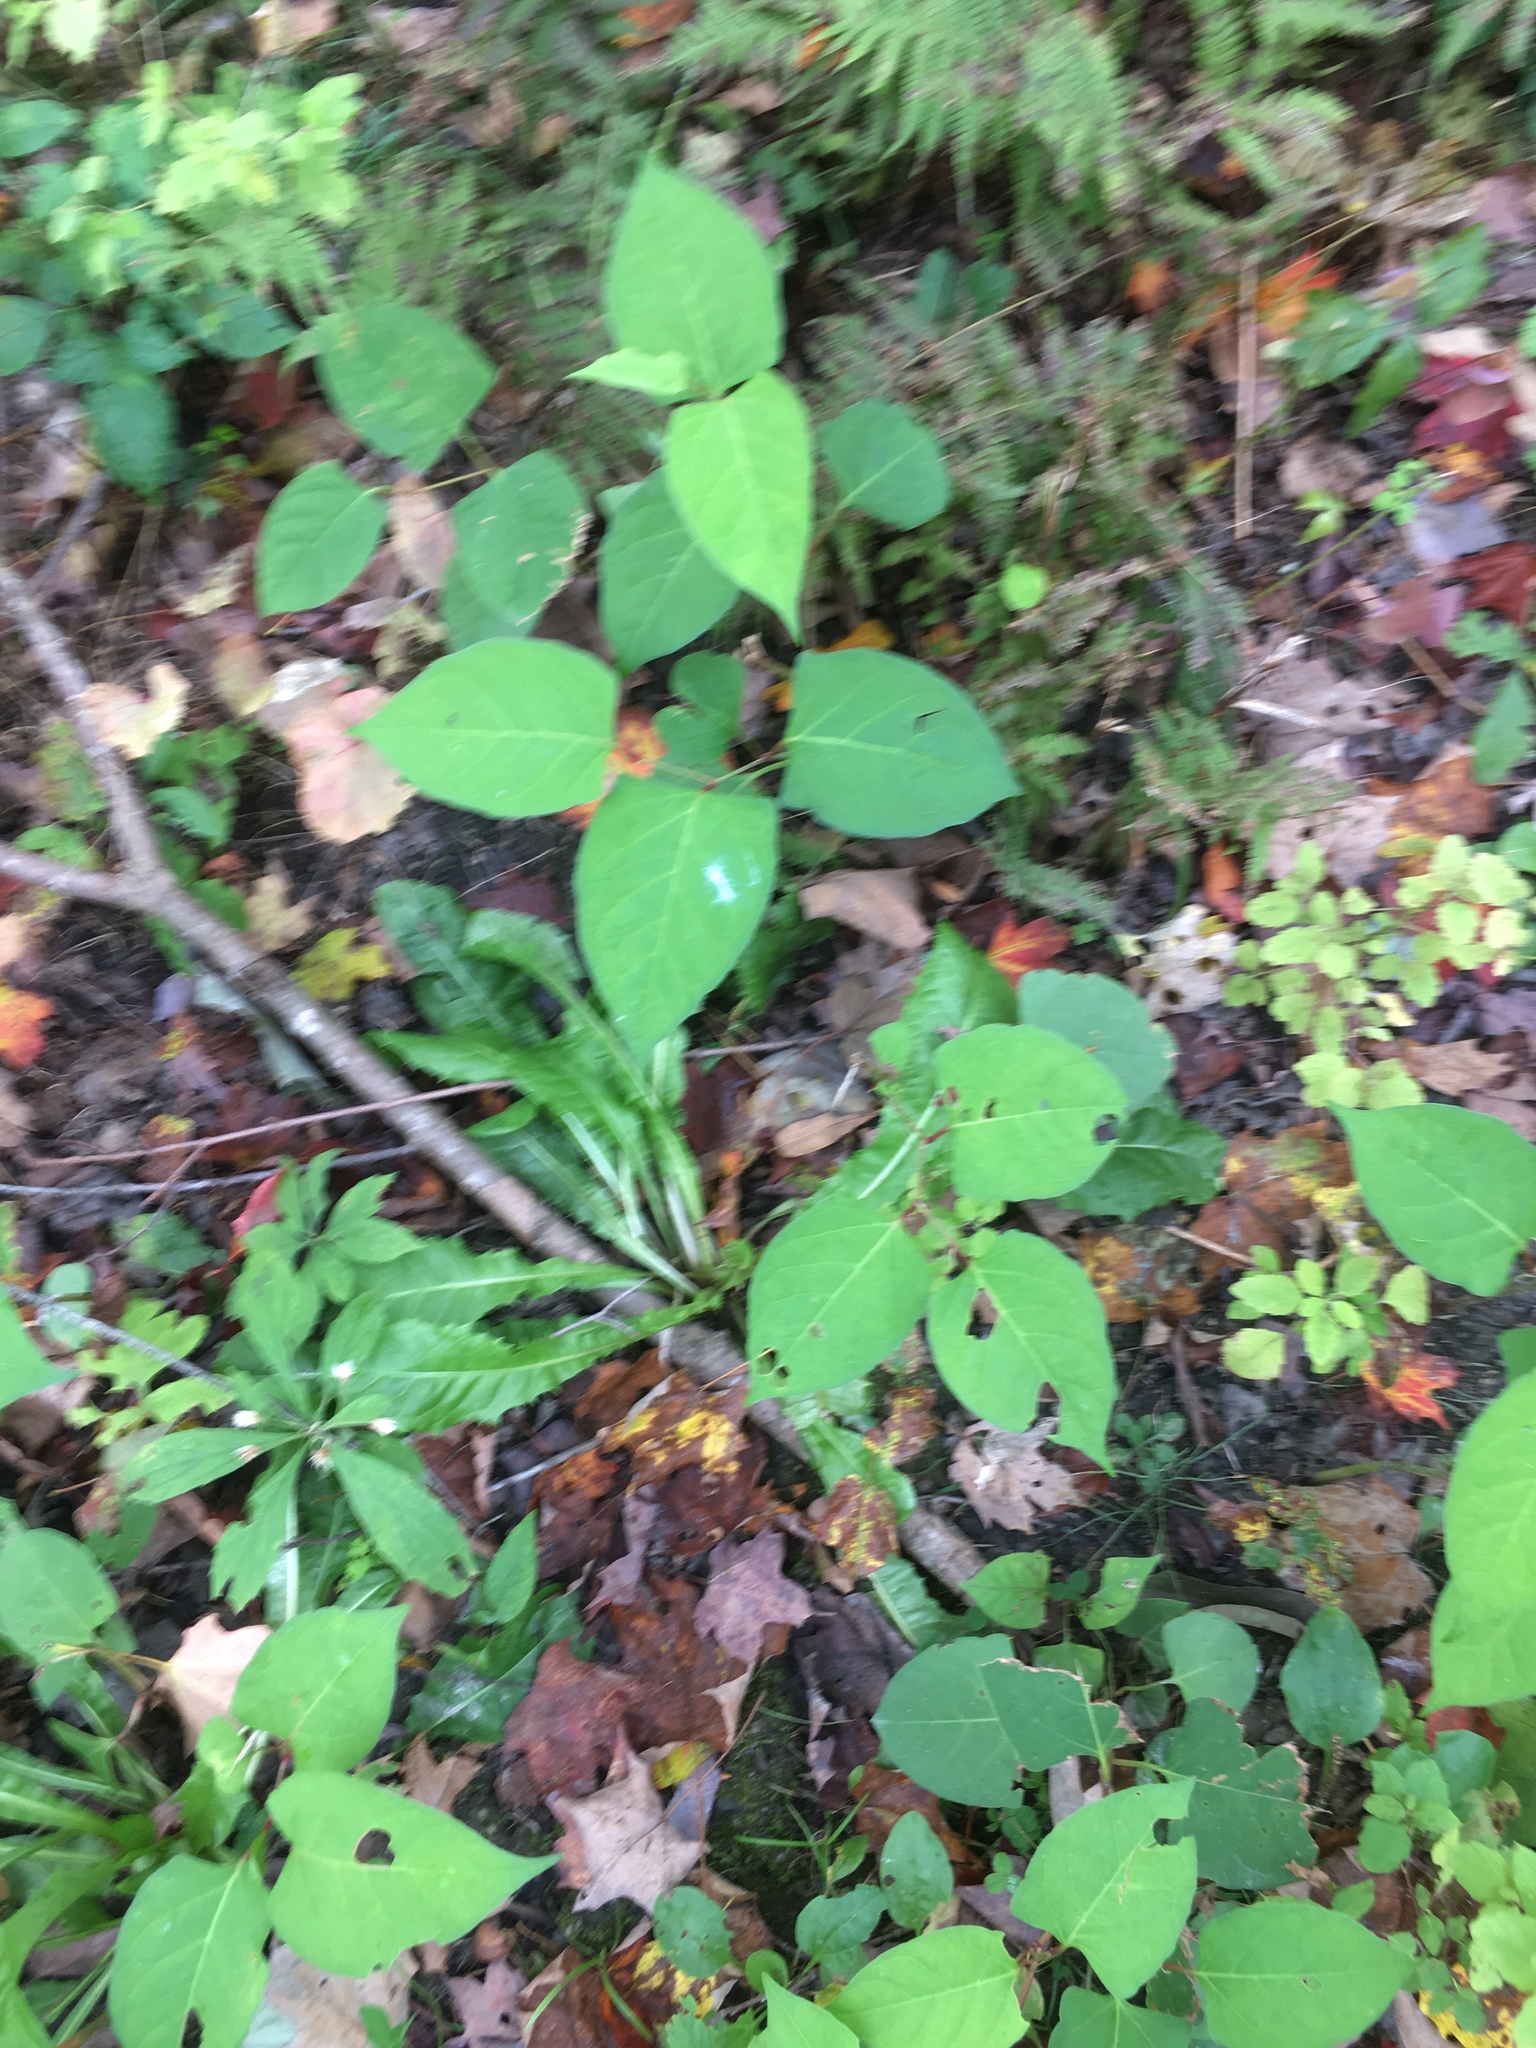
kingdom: Plantae
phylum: Tracheophyta
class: Magnoliopsida
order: Caryophyllales
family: Polygonaceae
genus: Reynoutria
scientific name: Reynoutria japonica
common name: Japanese knotweed
